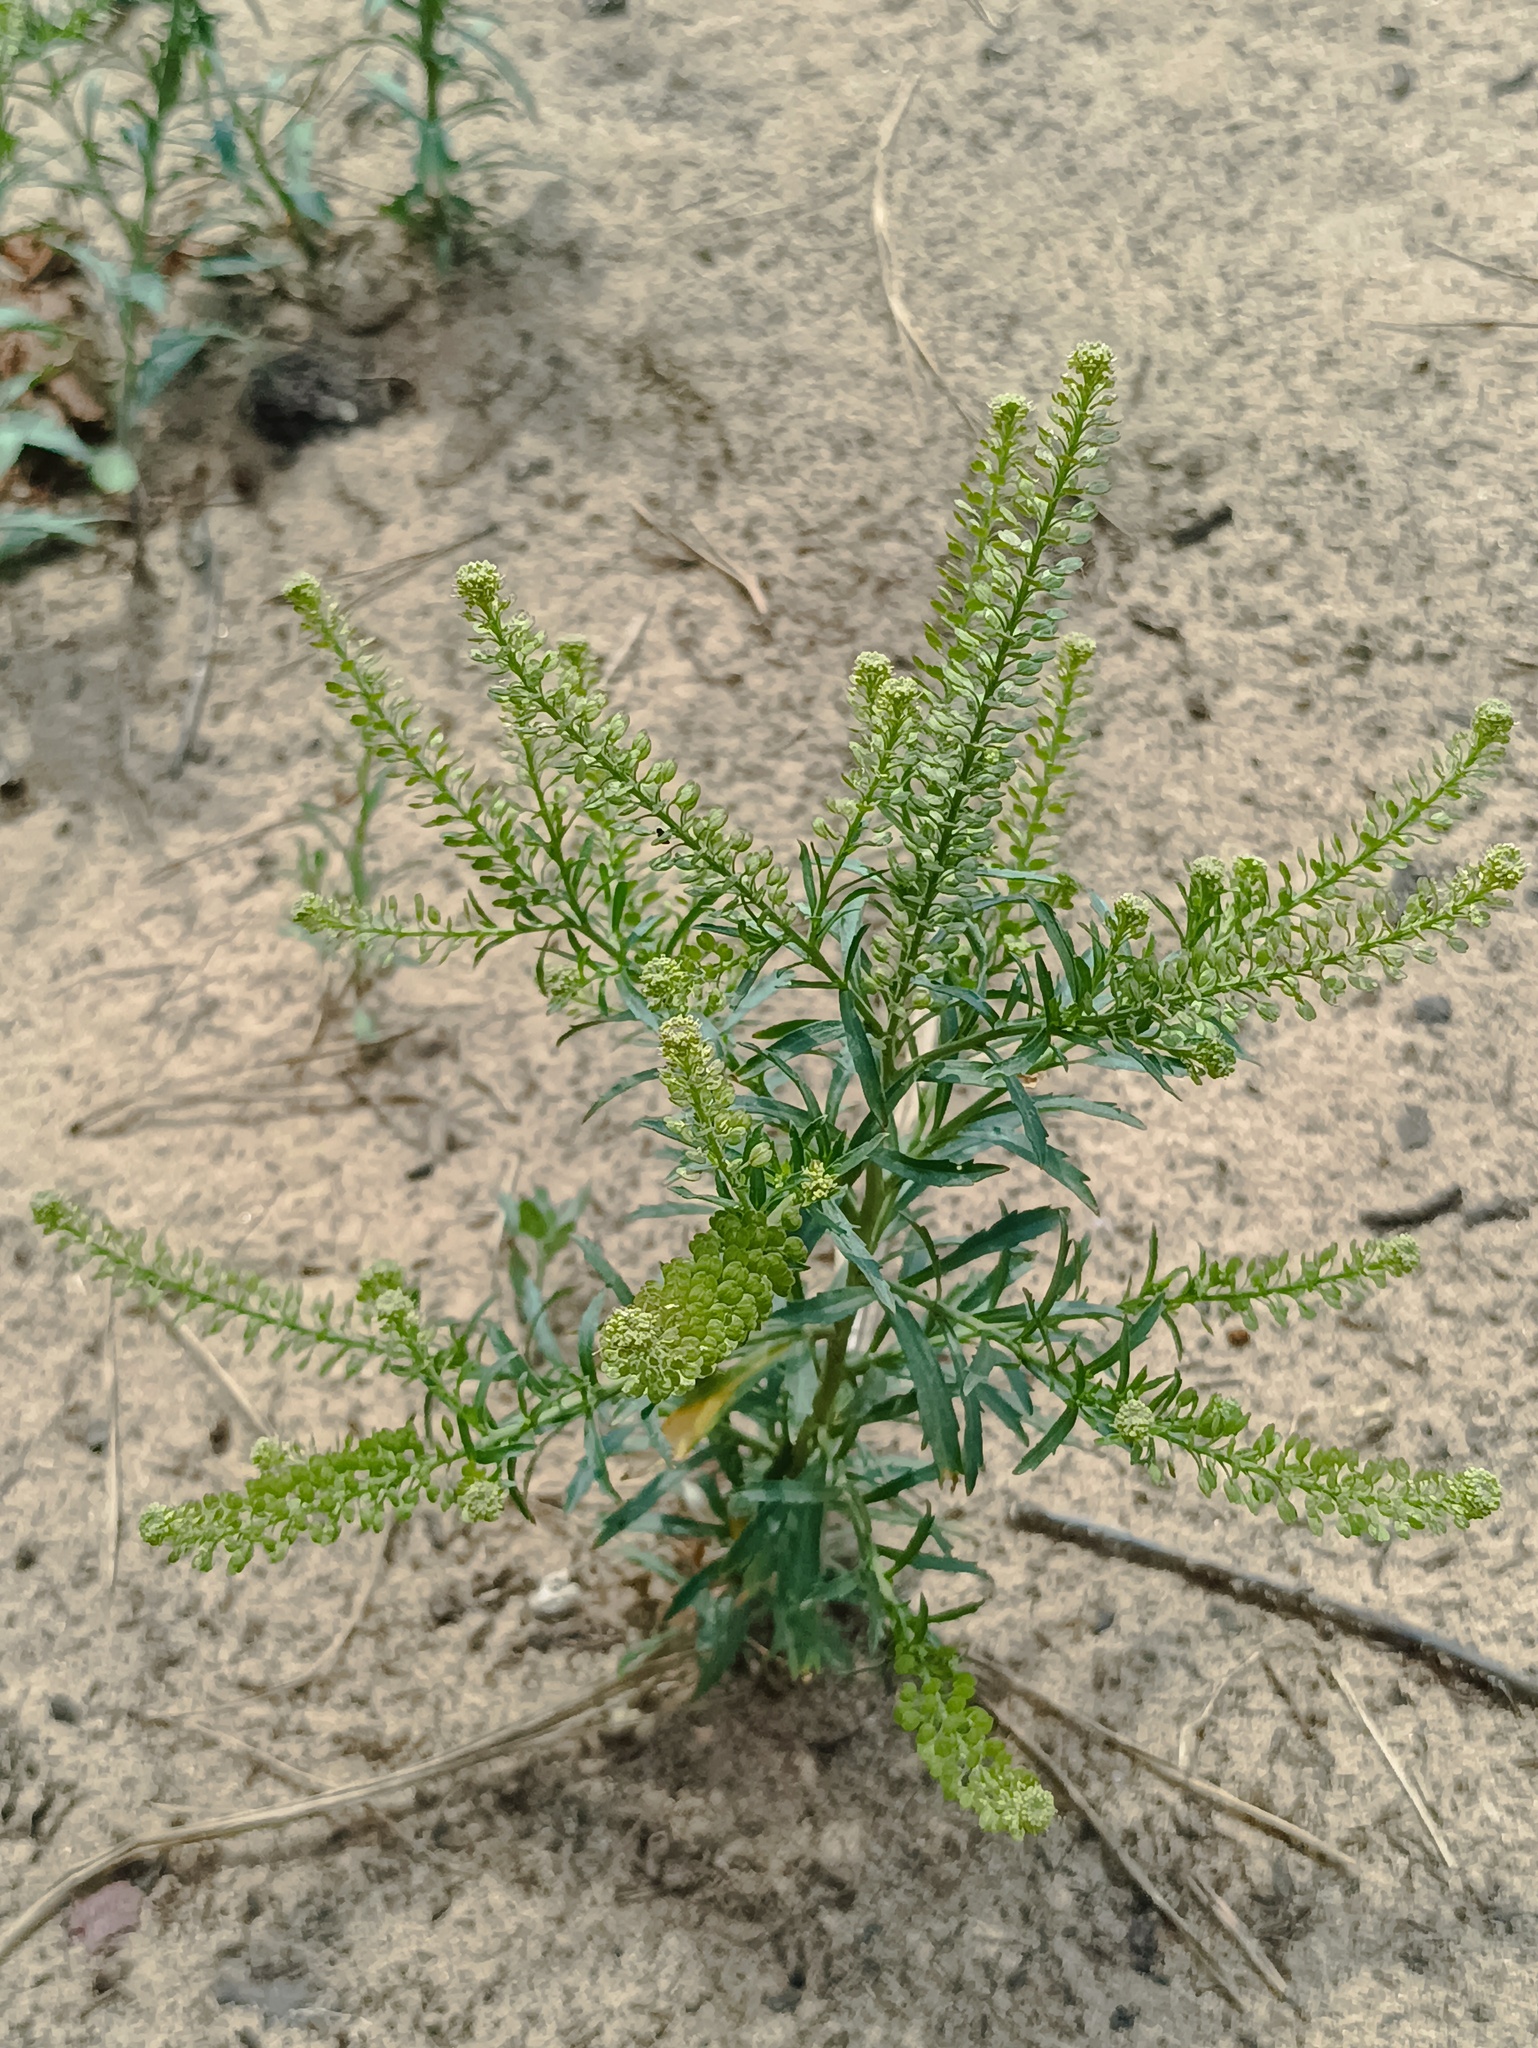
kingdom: Plantae
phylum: Tracheophyta
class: Magnoliopsida
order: Brassicales
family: Brassicaceae
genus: Lepidium
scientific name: Lepidium densiflorum
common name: Miner's pepperwort
